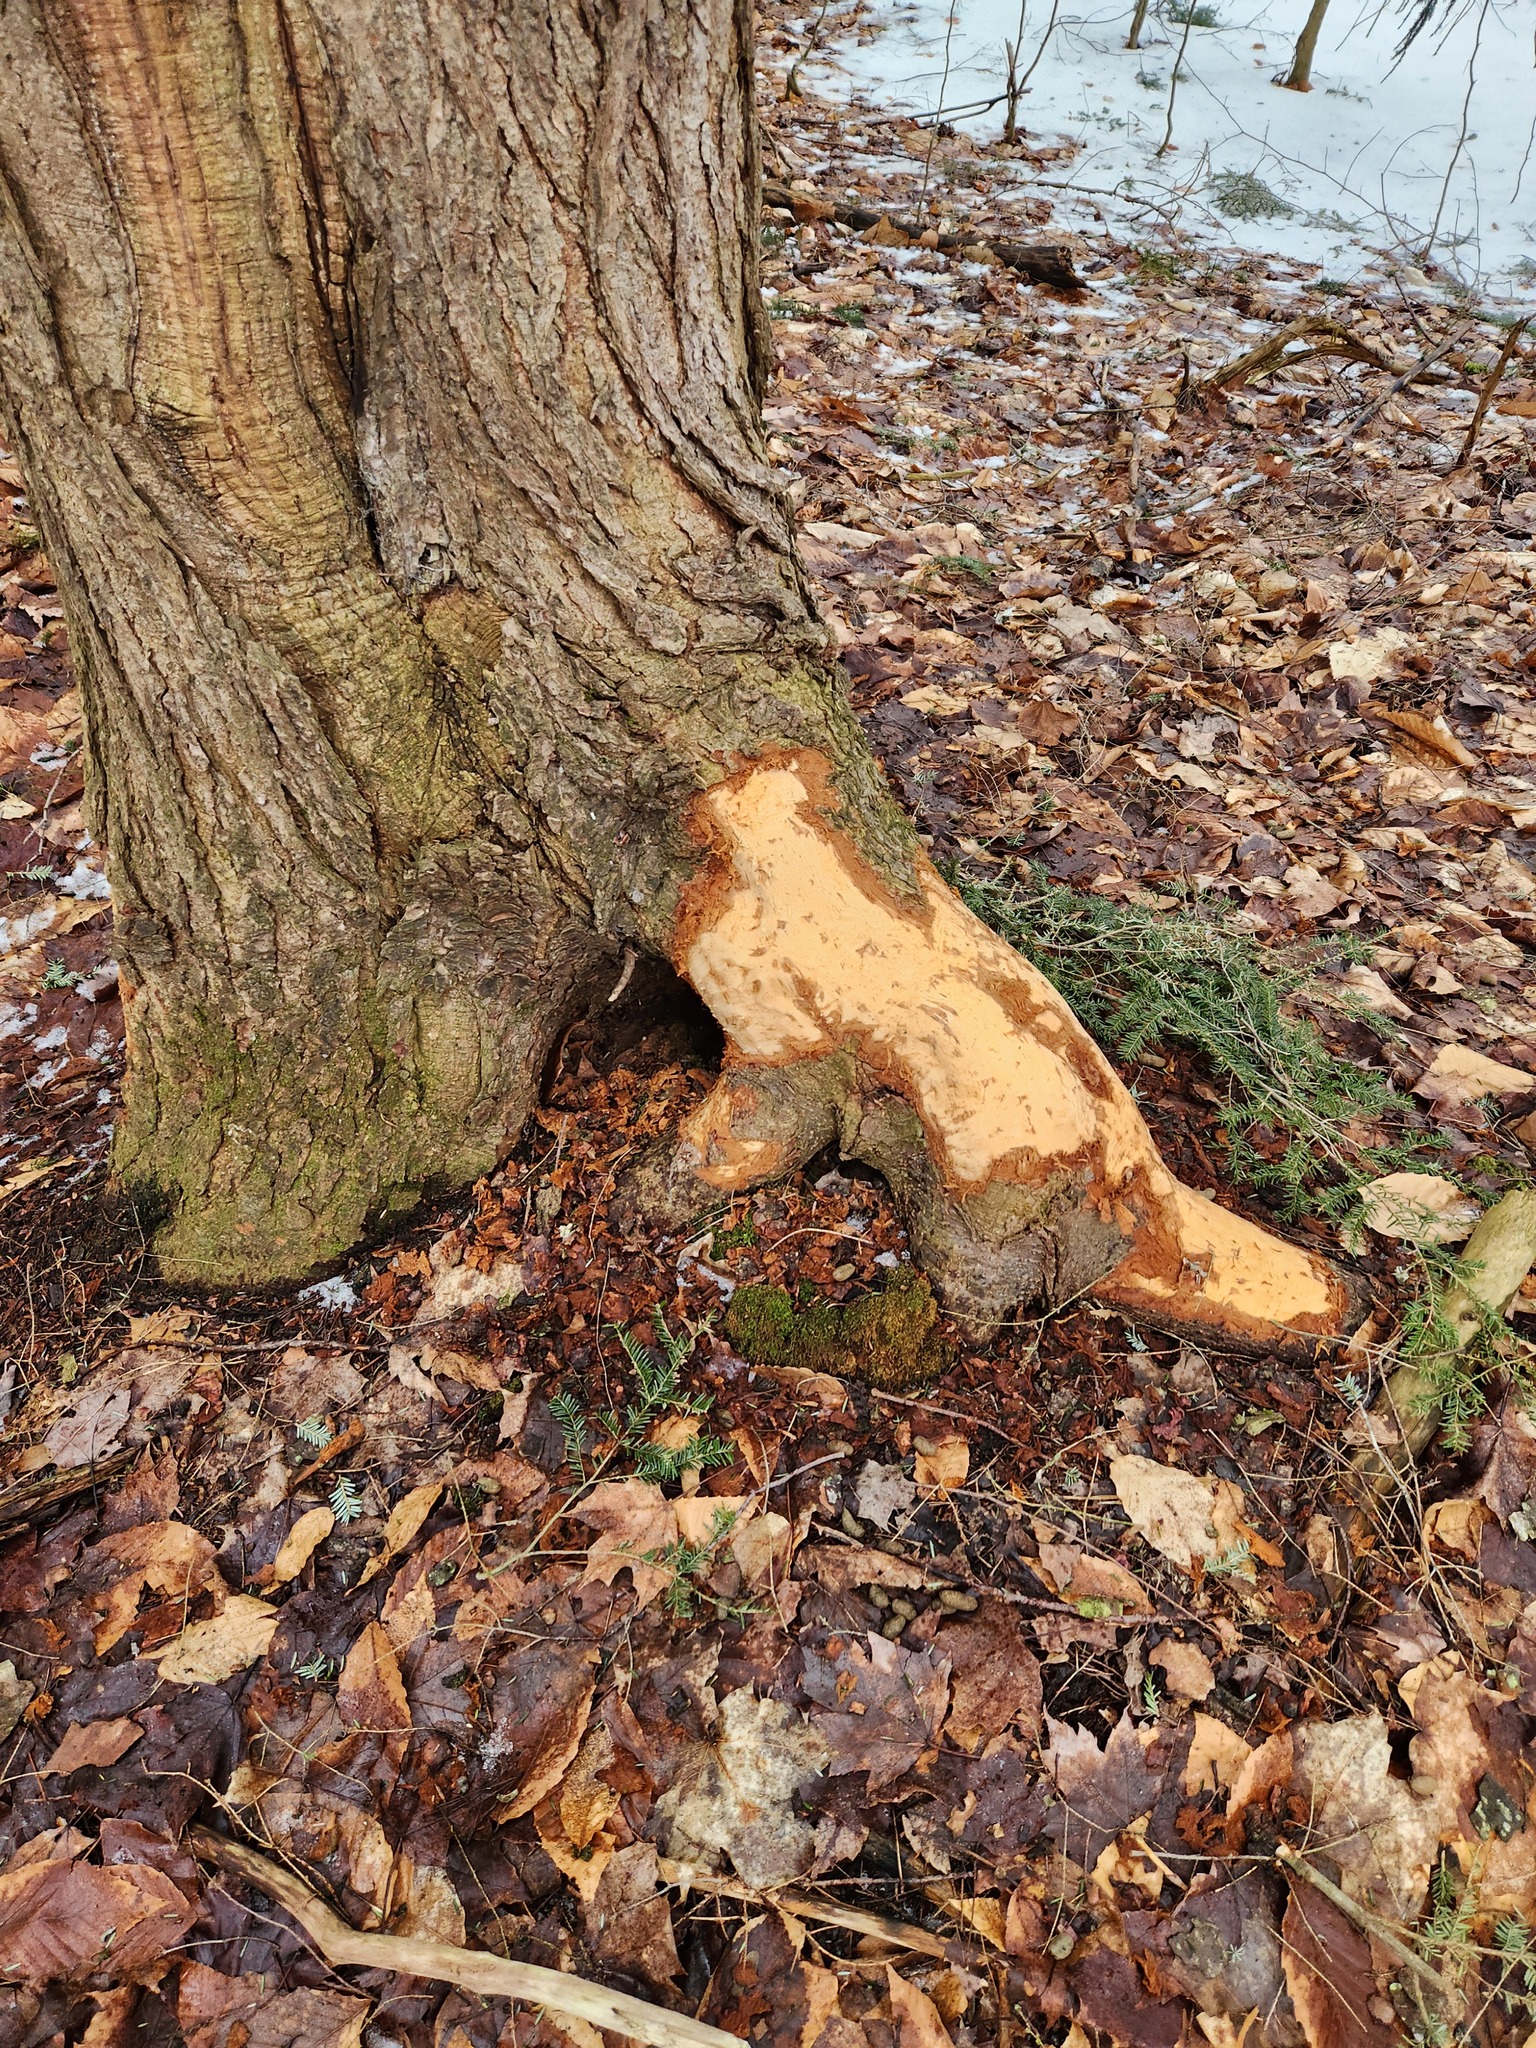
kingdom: Animalia
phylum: Chordata
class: Mammalia
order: Rodentia
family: Erethizontidae
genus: Erethizon
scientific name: Erethizon dorsatus
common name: North american porcupine
